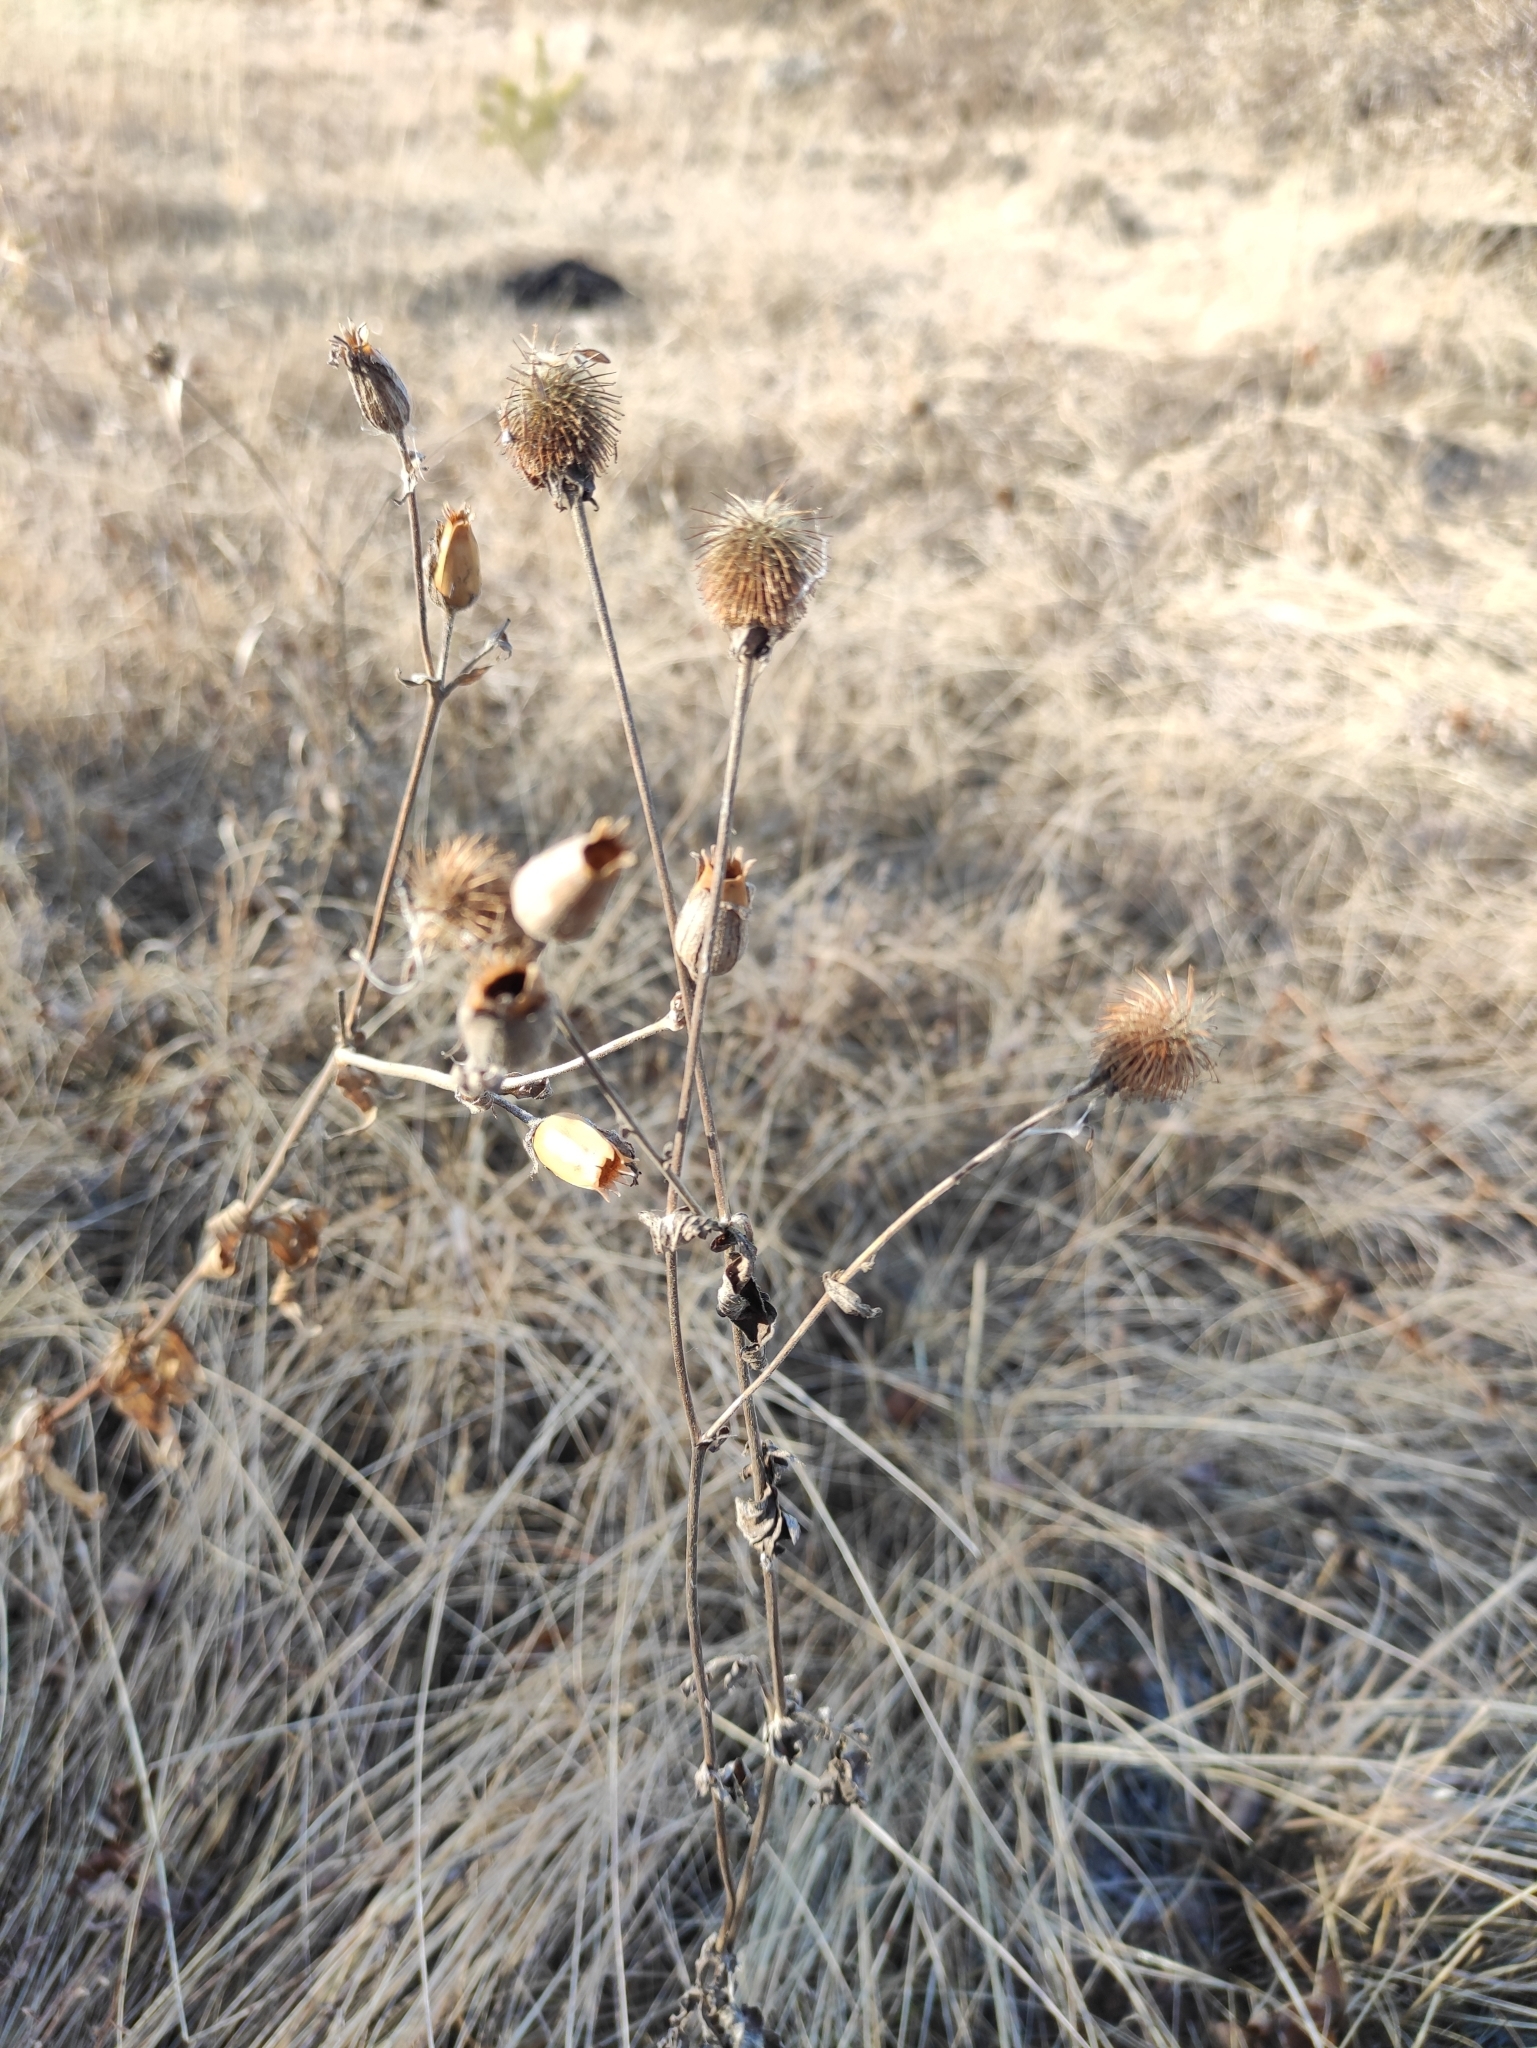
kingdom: Plantae
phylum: Tracheophyta
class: Magnoliopsida
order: Rosales
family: Rosaceae
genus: Geum
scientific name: Geum aleppicum
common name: Yellow avens
